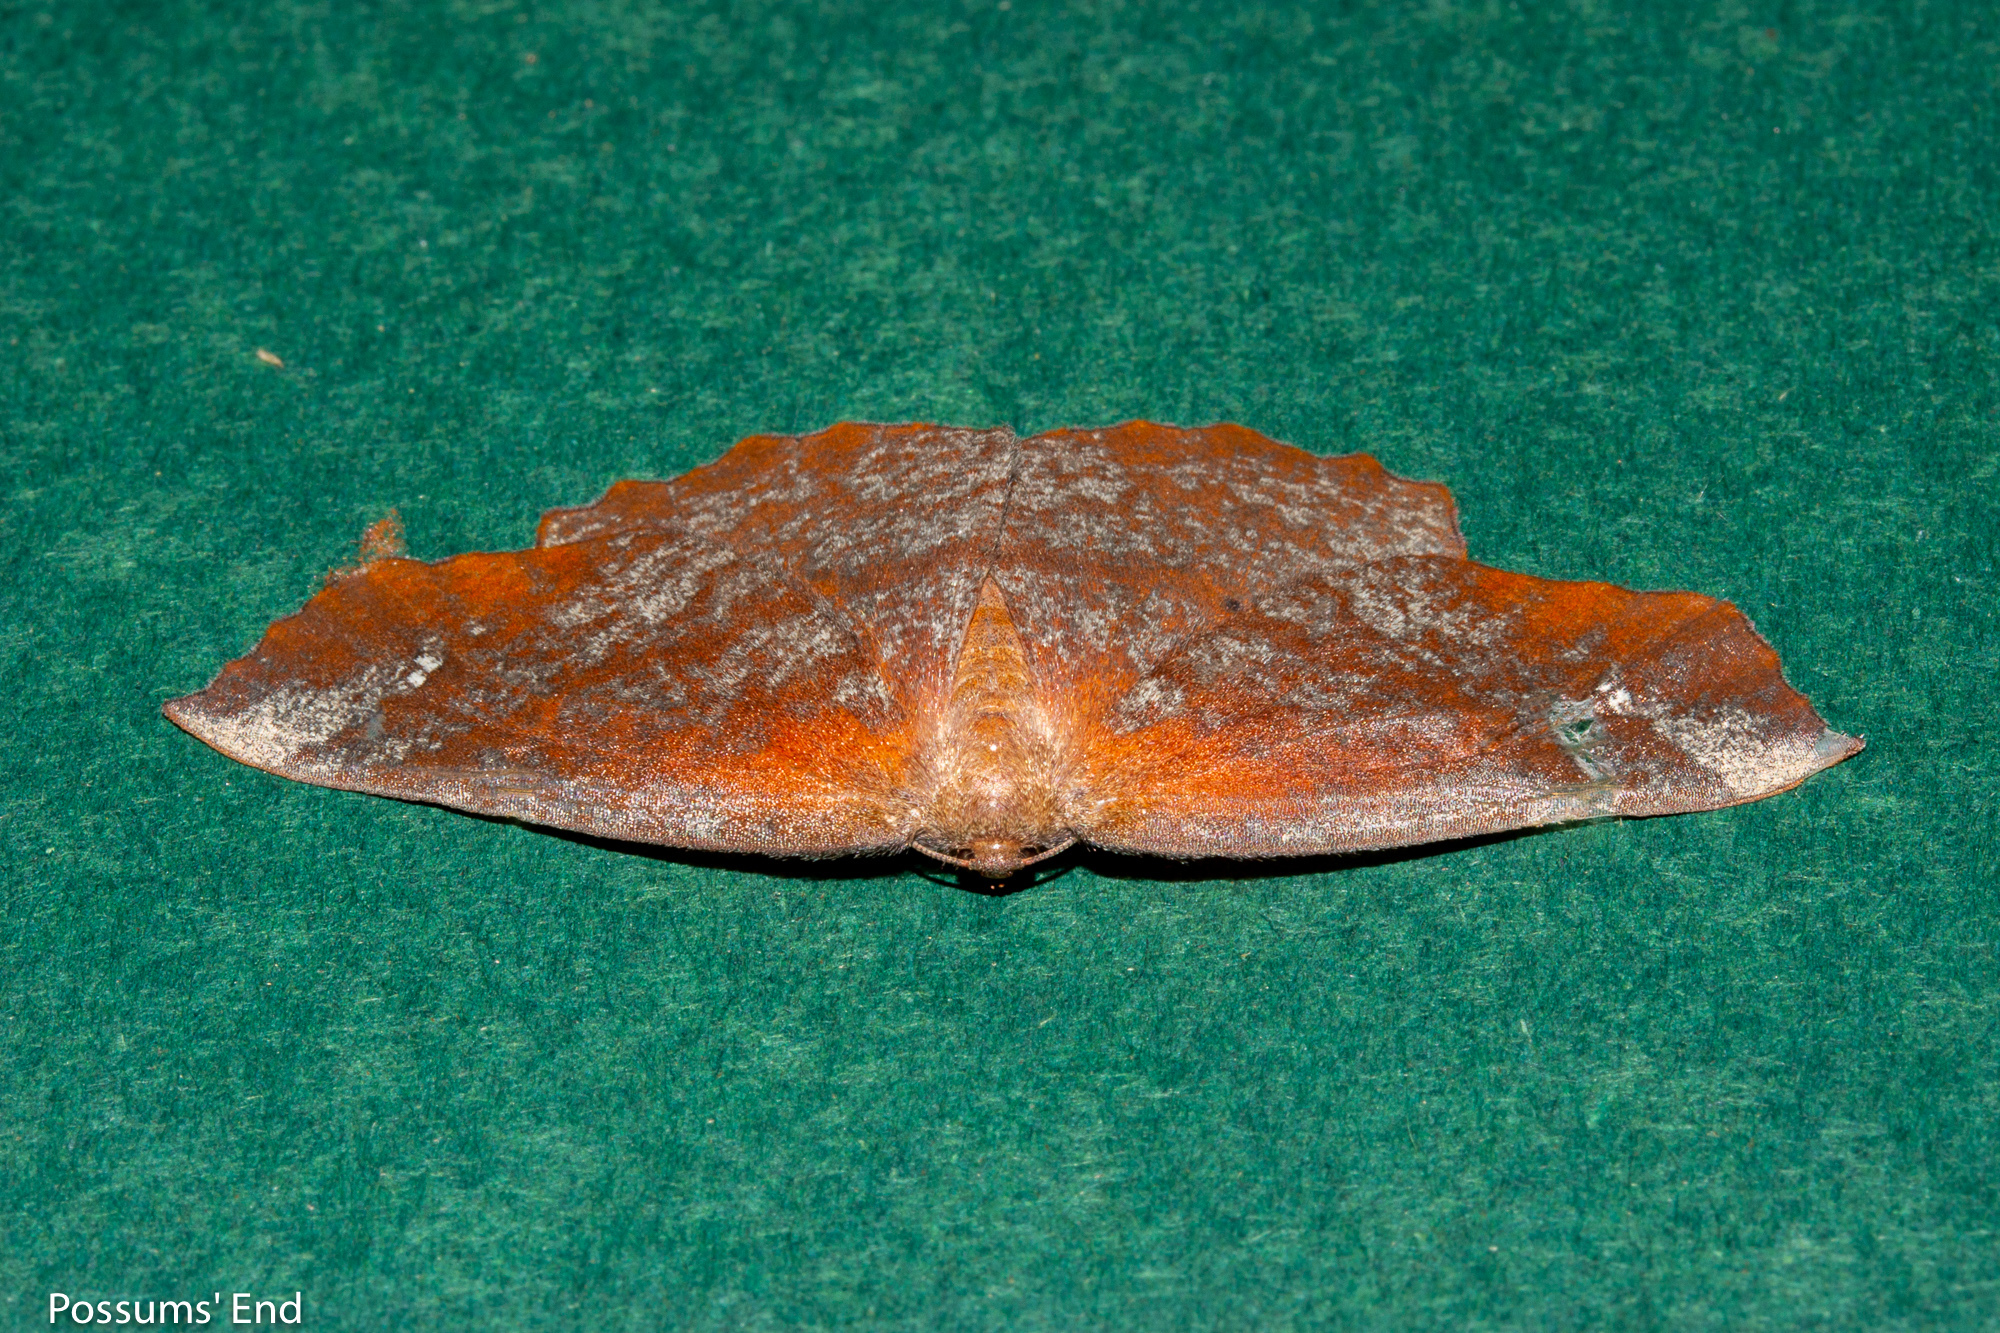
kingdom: Animalia
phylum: Arthropoda
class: Insecta
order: Lepidoptera
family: Geometridae
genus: Xyridacma
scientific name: Xyridacma ustaria
